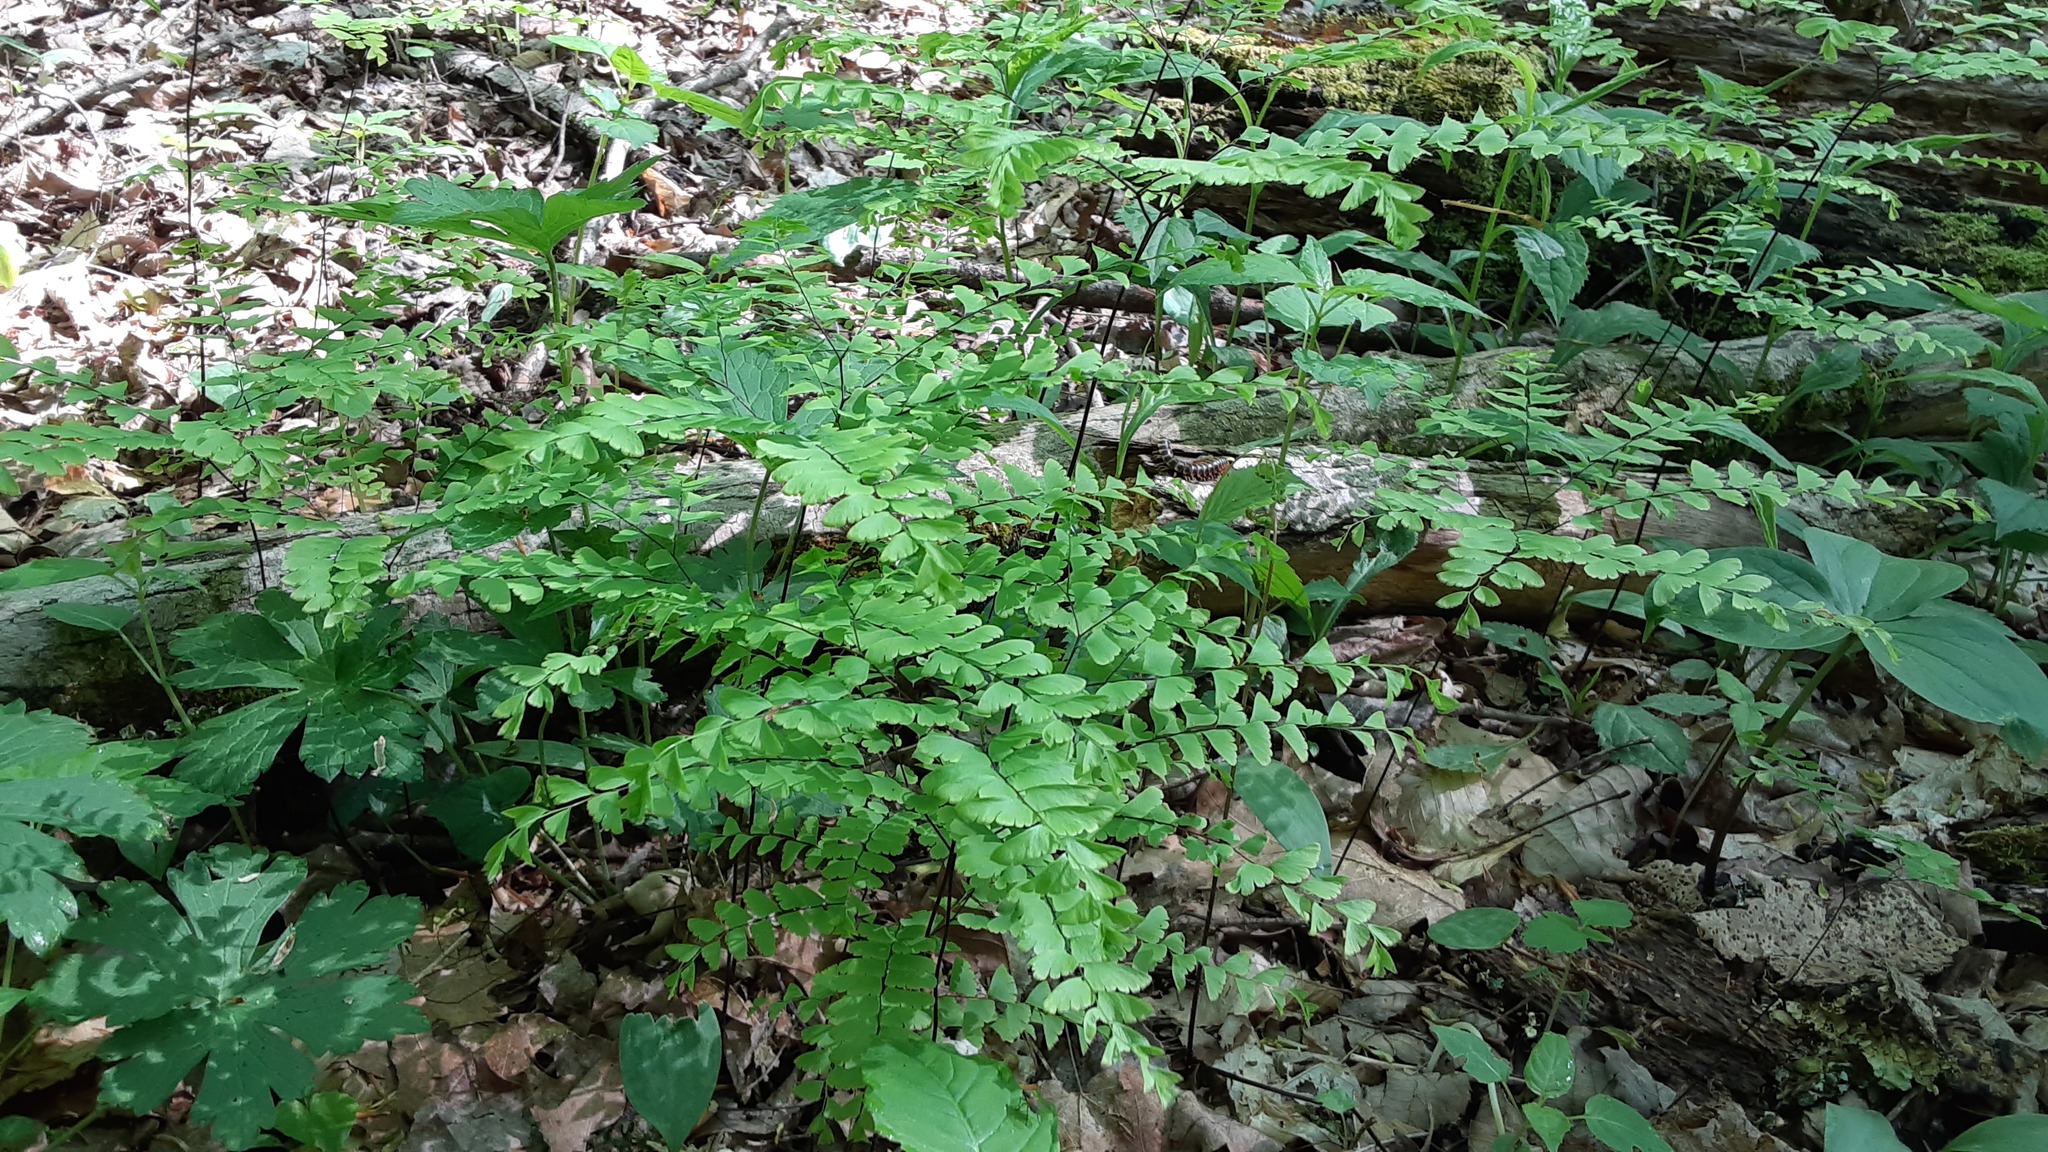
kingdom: Plantae
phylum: Tracheophyta
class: Polypodiopsida
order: Polypodiales
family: Pteridaceae
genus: Adiantum
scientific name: Adiantum pedatum
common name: Five-finger fern
